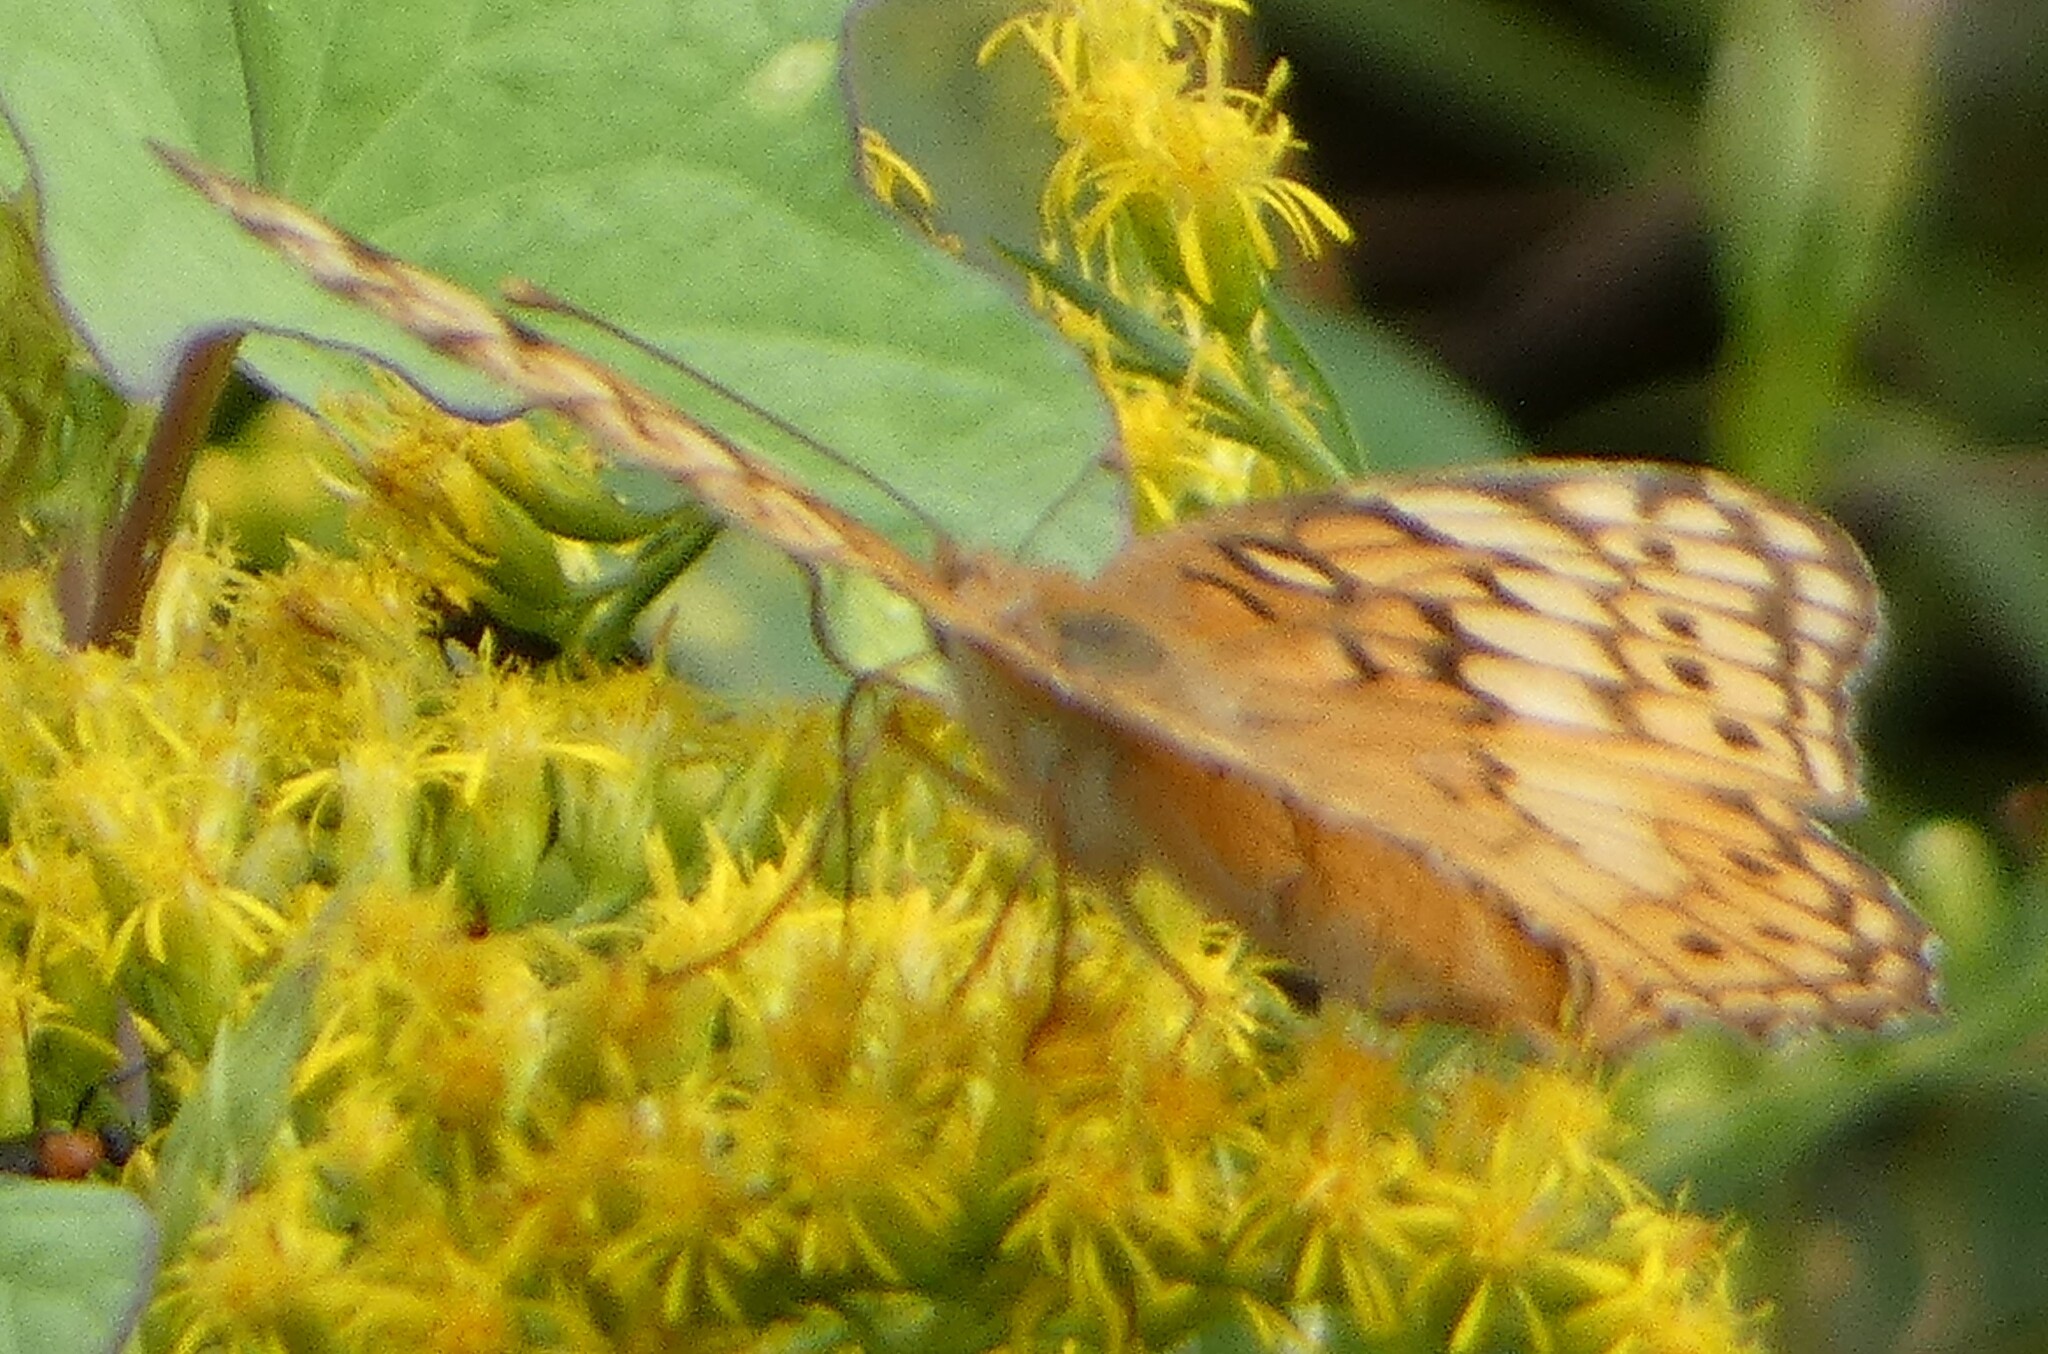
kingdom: Animalia
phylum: Arthropoda
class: Insecta
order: Lepidoptera
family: Nymphalidae
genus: Euptoieta
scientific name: Euptoieta claudia
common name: Variegated fritillary
